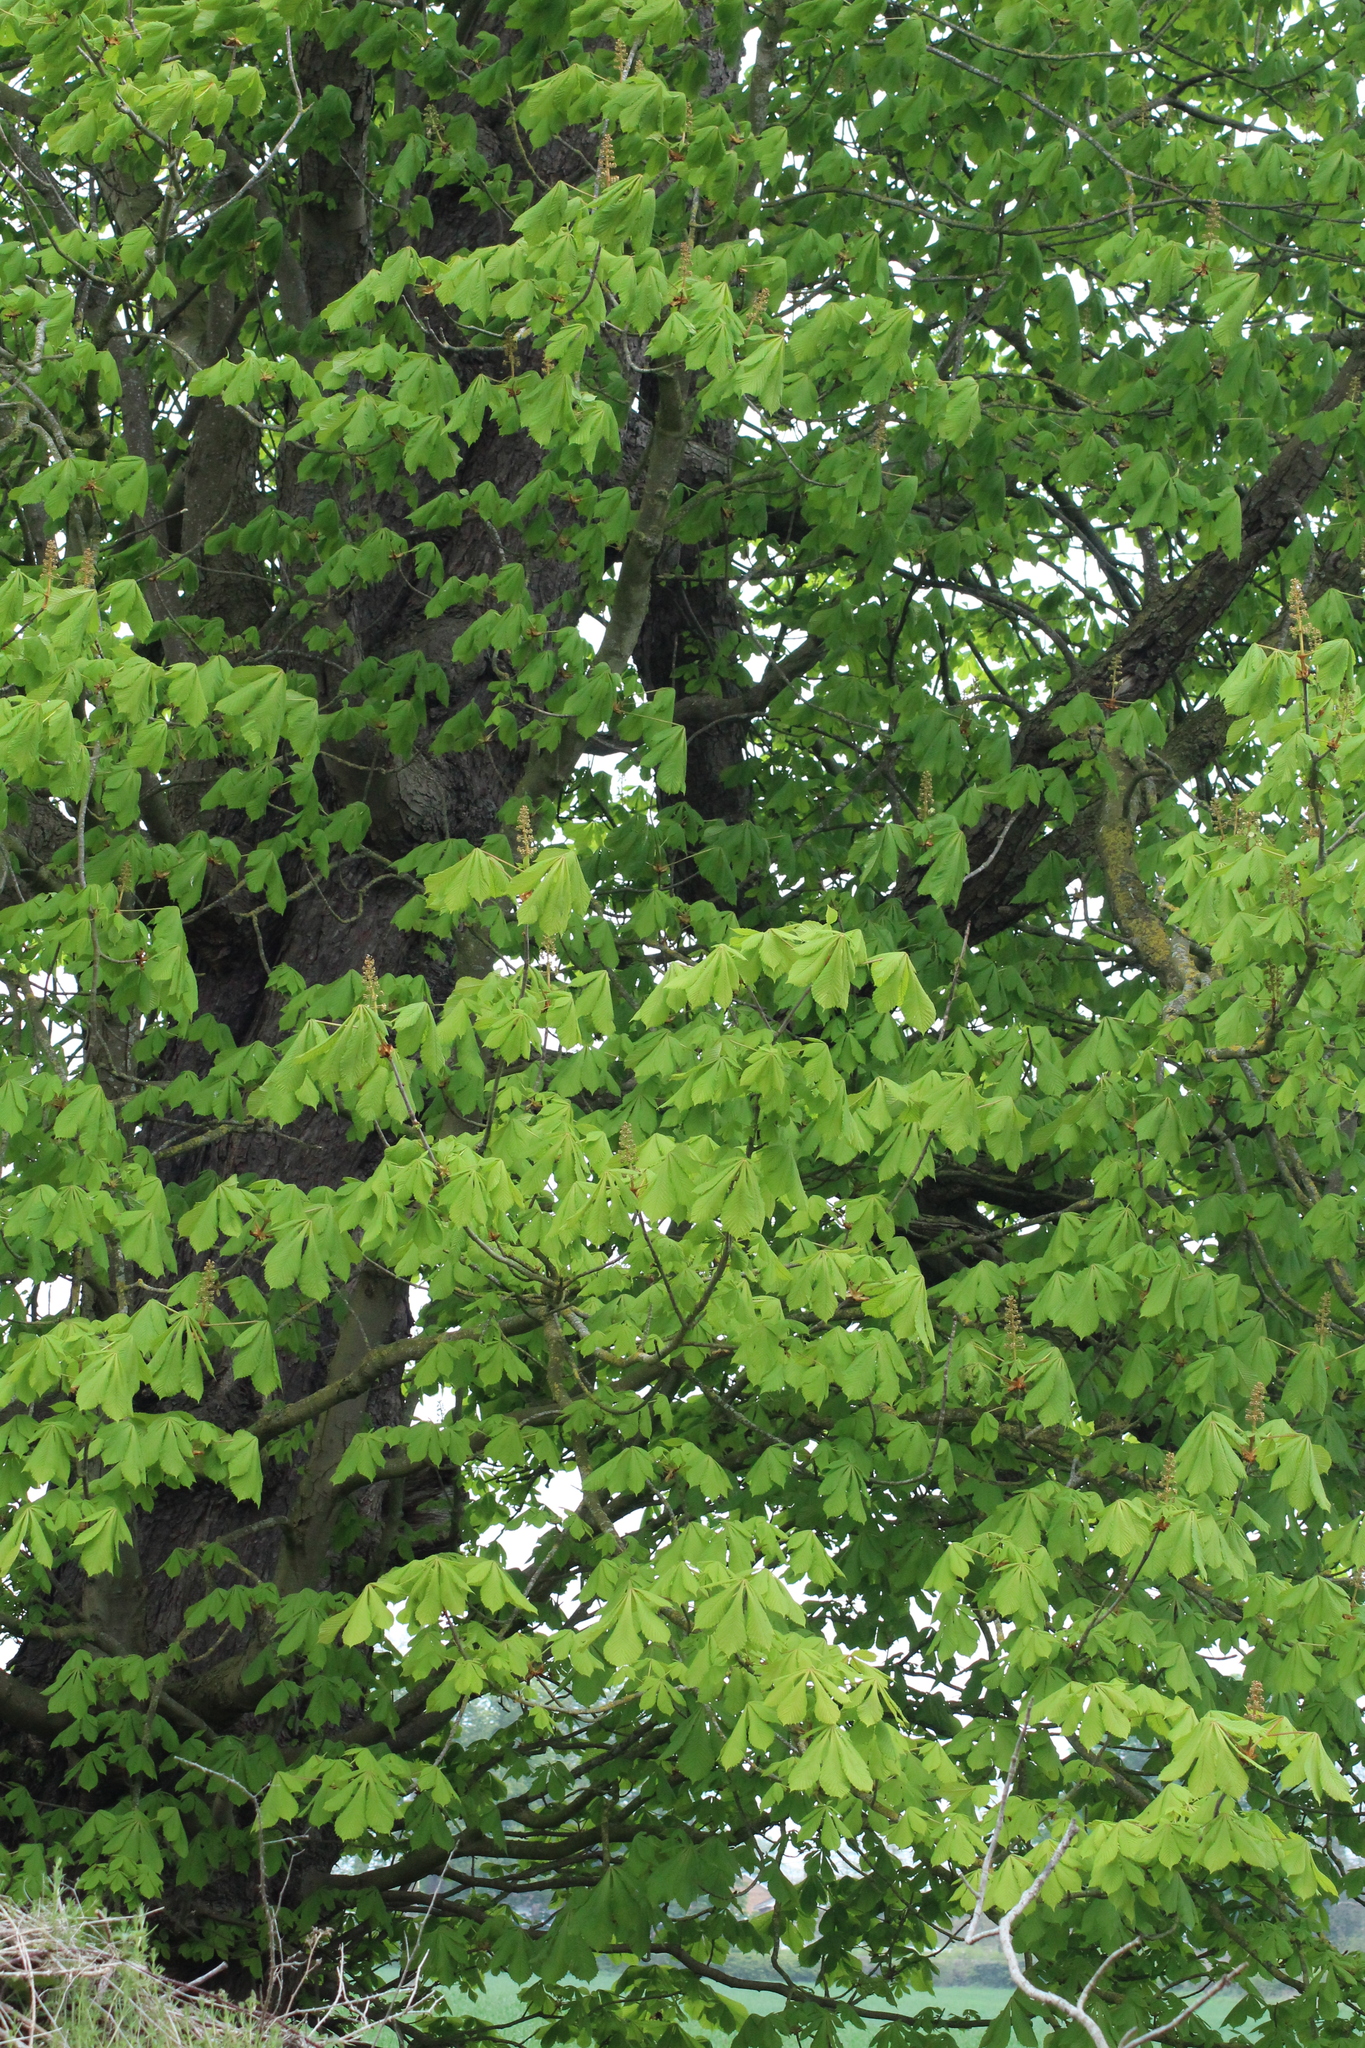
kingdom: Plantae
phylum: Tracheophyta
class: Magnoliopsida
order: Sapindales
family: Sapindaceae
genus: Aesculus
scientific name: Aesculus hippocastanum
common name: Horse-chestnut
